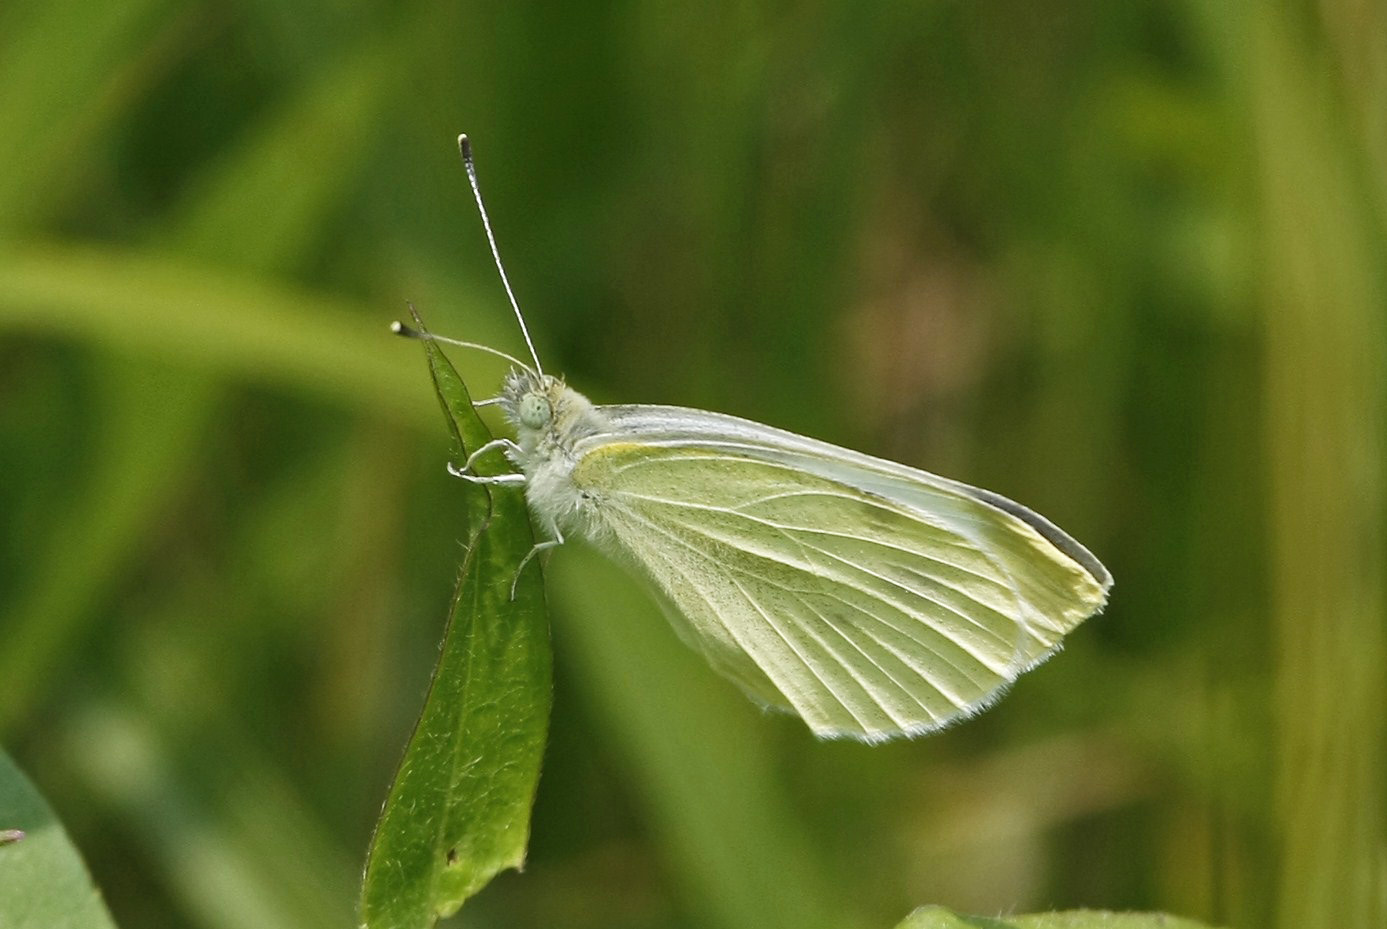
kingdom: Animalia
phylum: Arthropoda
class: Insecta
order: Lepidoptera
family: Pieridae
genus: Pieris
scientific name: Pieris rapae
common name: Small white
